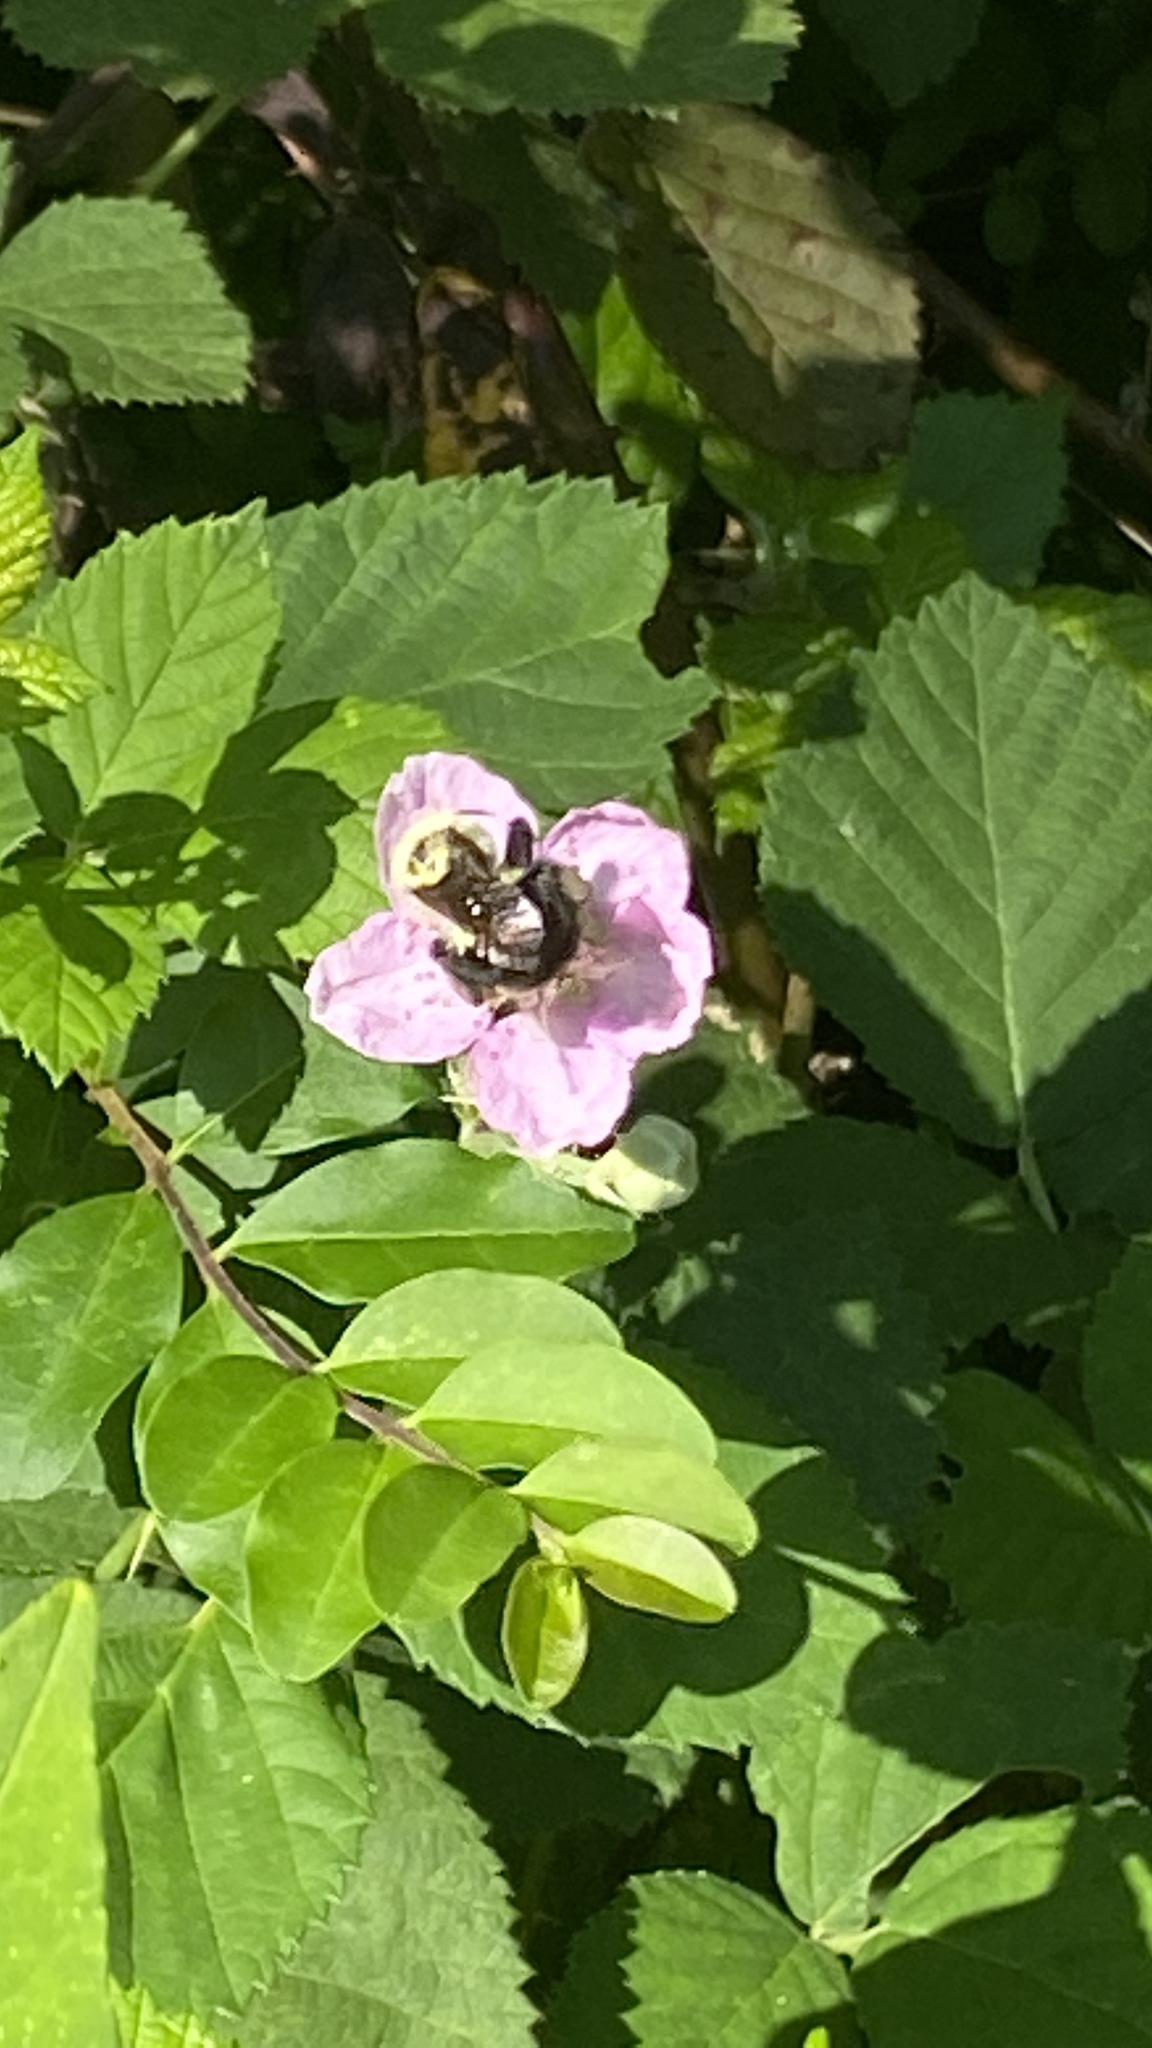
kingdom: Animalia
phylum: Arthropoda
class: Insecta
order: Hymenoptera
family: Apidae
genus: Bombus
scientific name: Bombus
